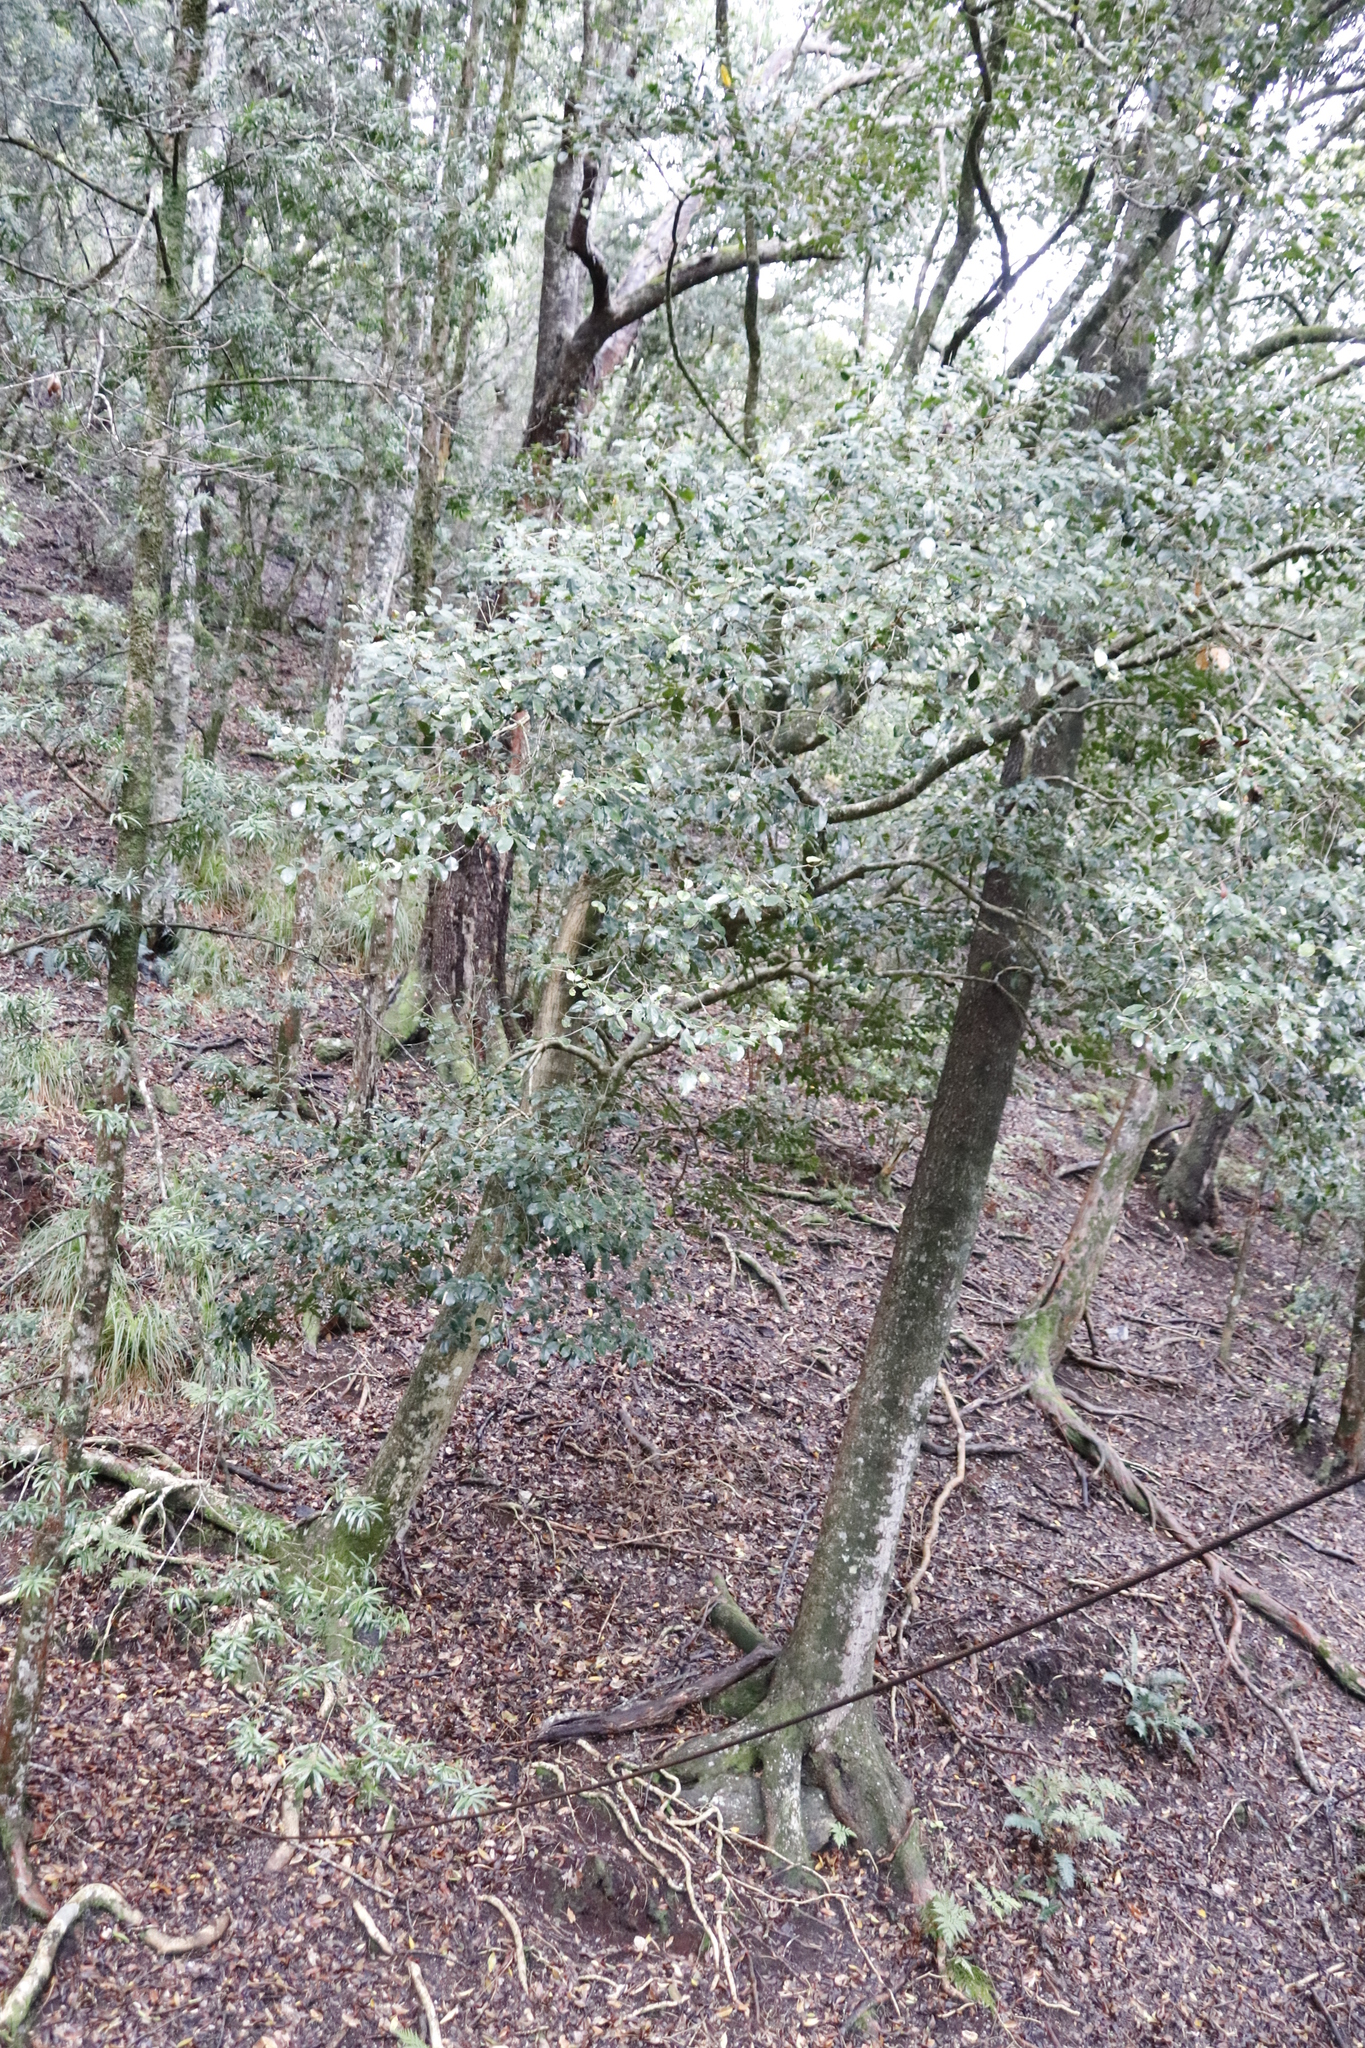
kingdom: Plantae
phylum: Tracheophyta
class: Magnoliopsida
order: Lamiales
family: Oleaceae
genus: Olea
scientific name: Olea capensis
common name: Black ironwood
